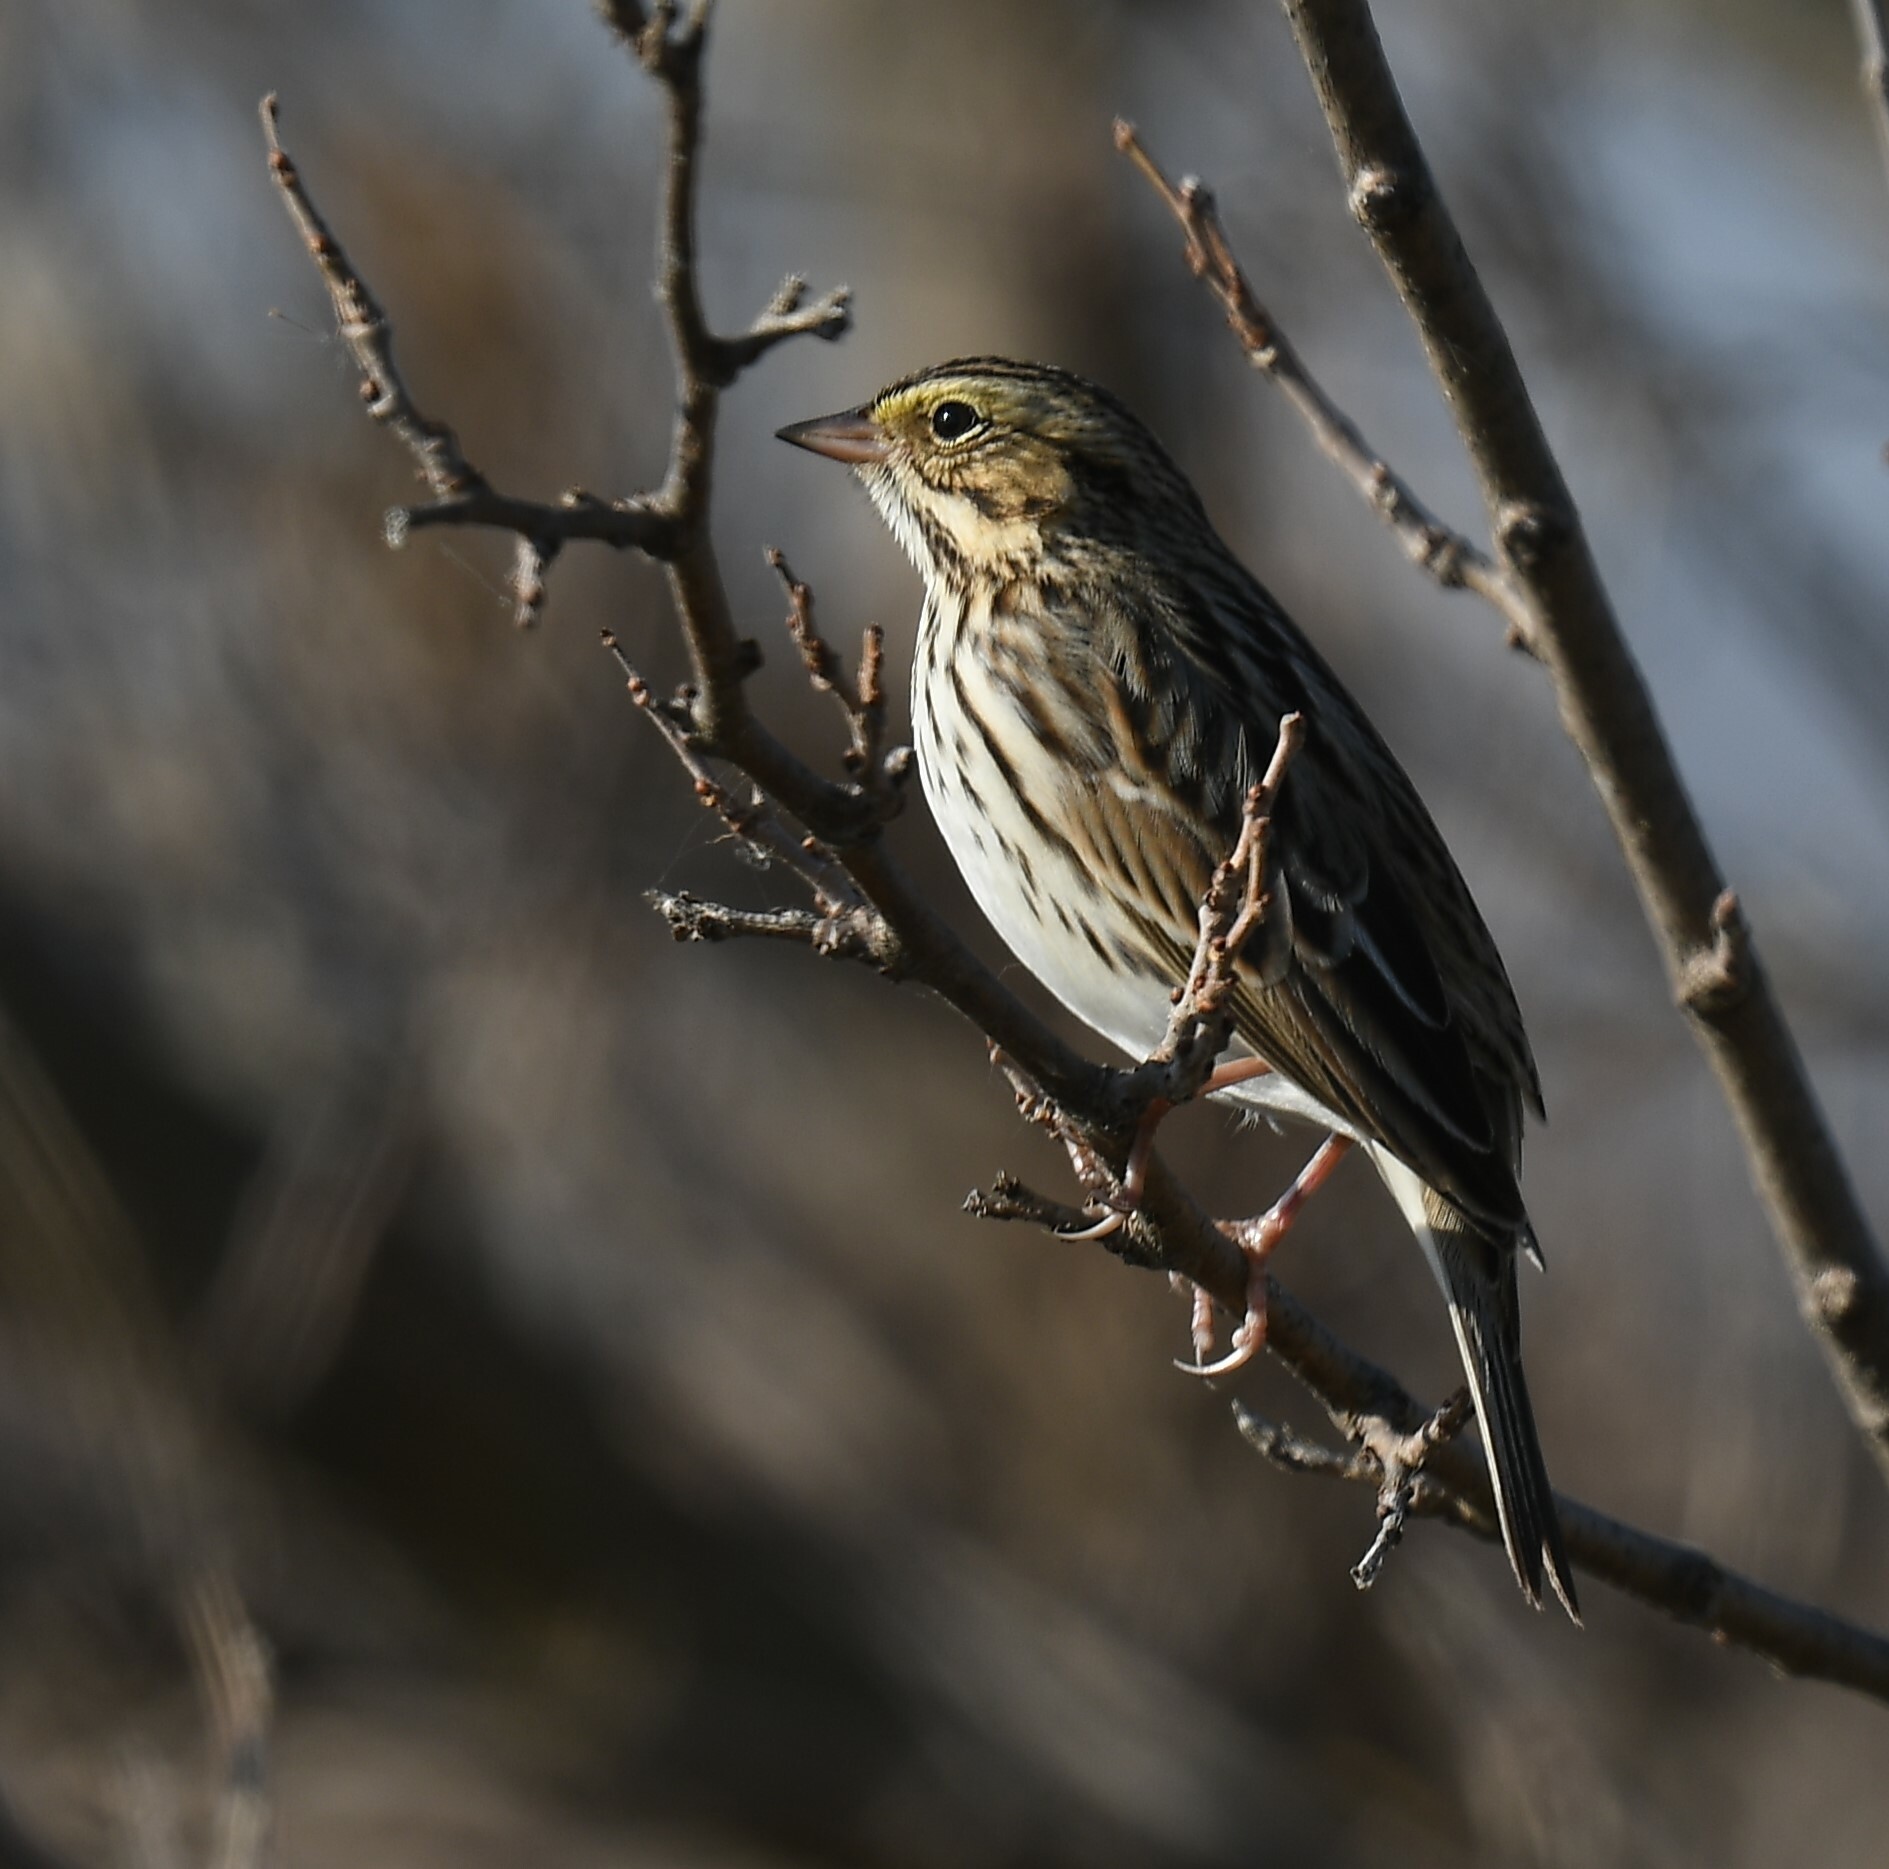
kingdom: Animalia
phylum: Chordata
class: Aves
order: Passeriformes
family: Passerellidae
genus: Passerculus
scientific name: Passerculus sandwichensis
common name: Savannah sparrow
